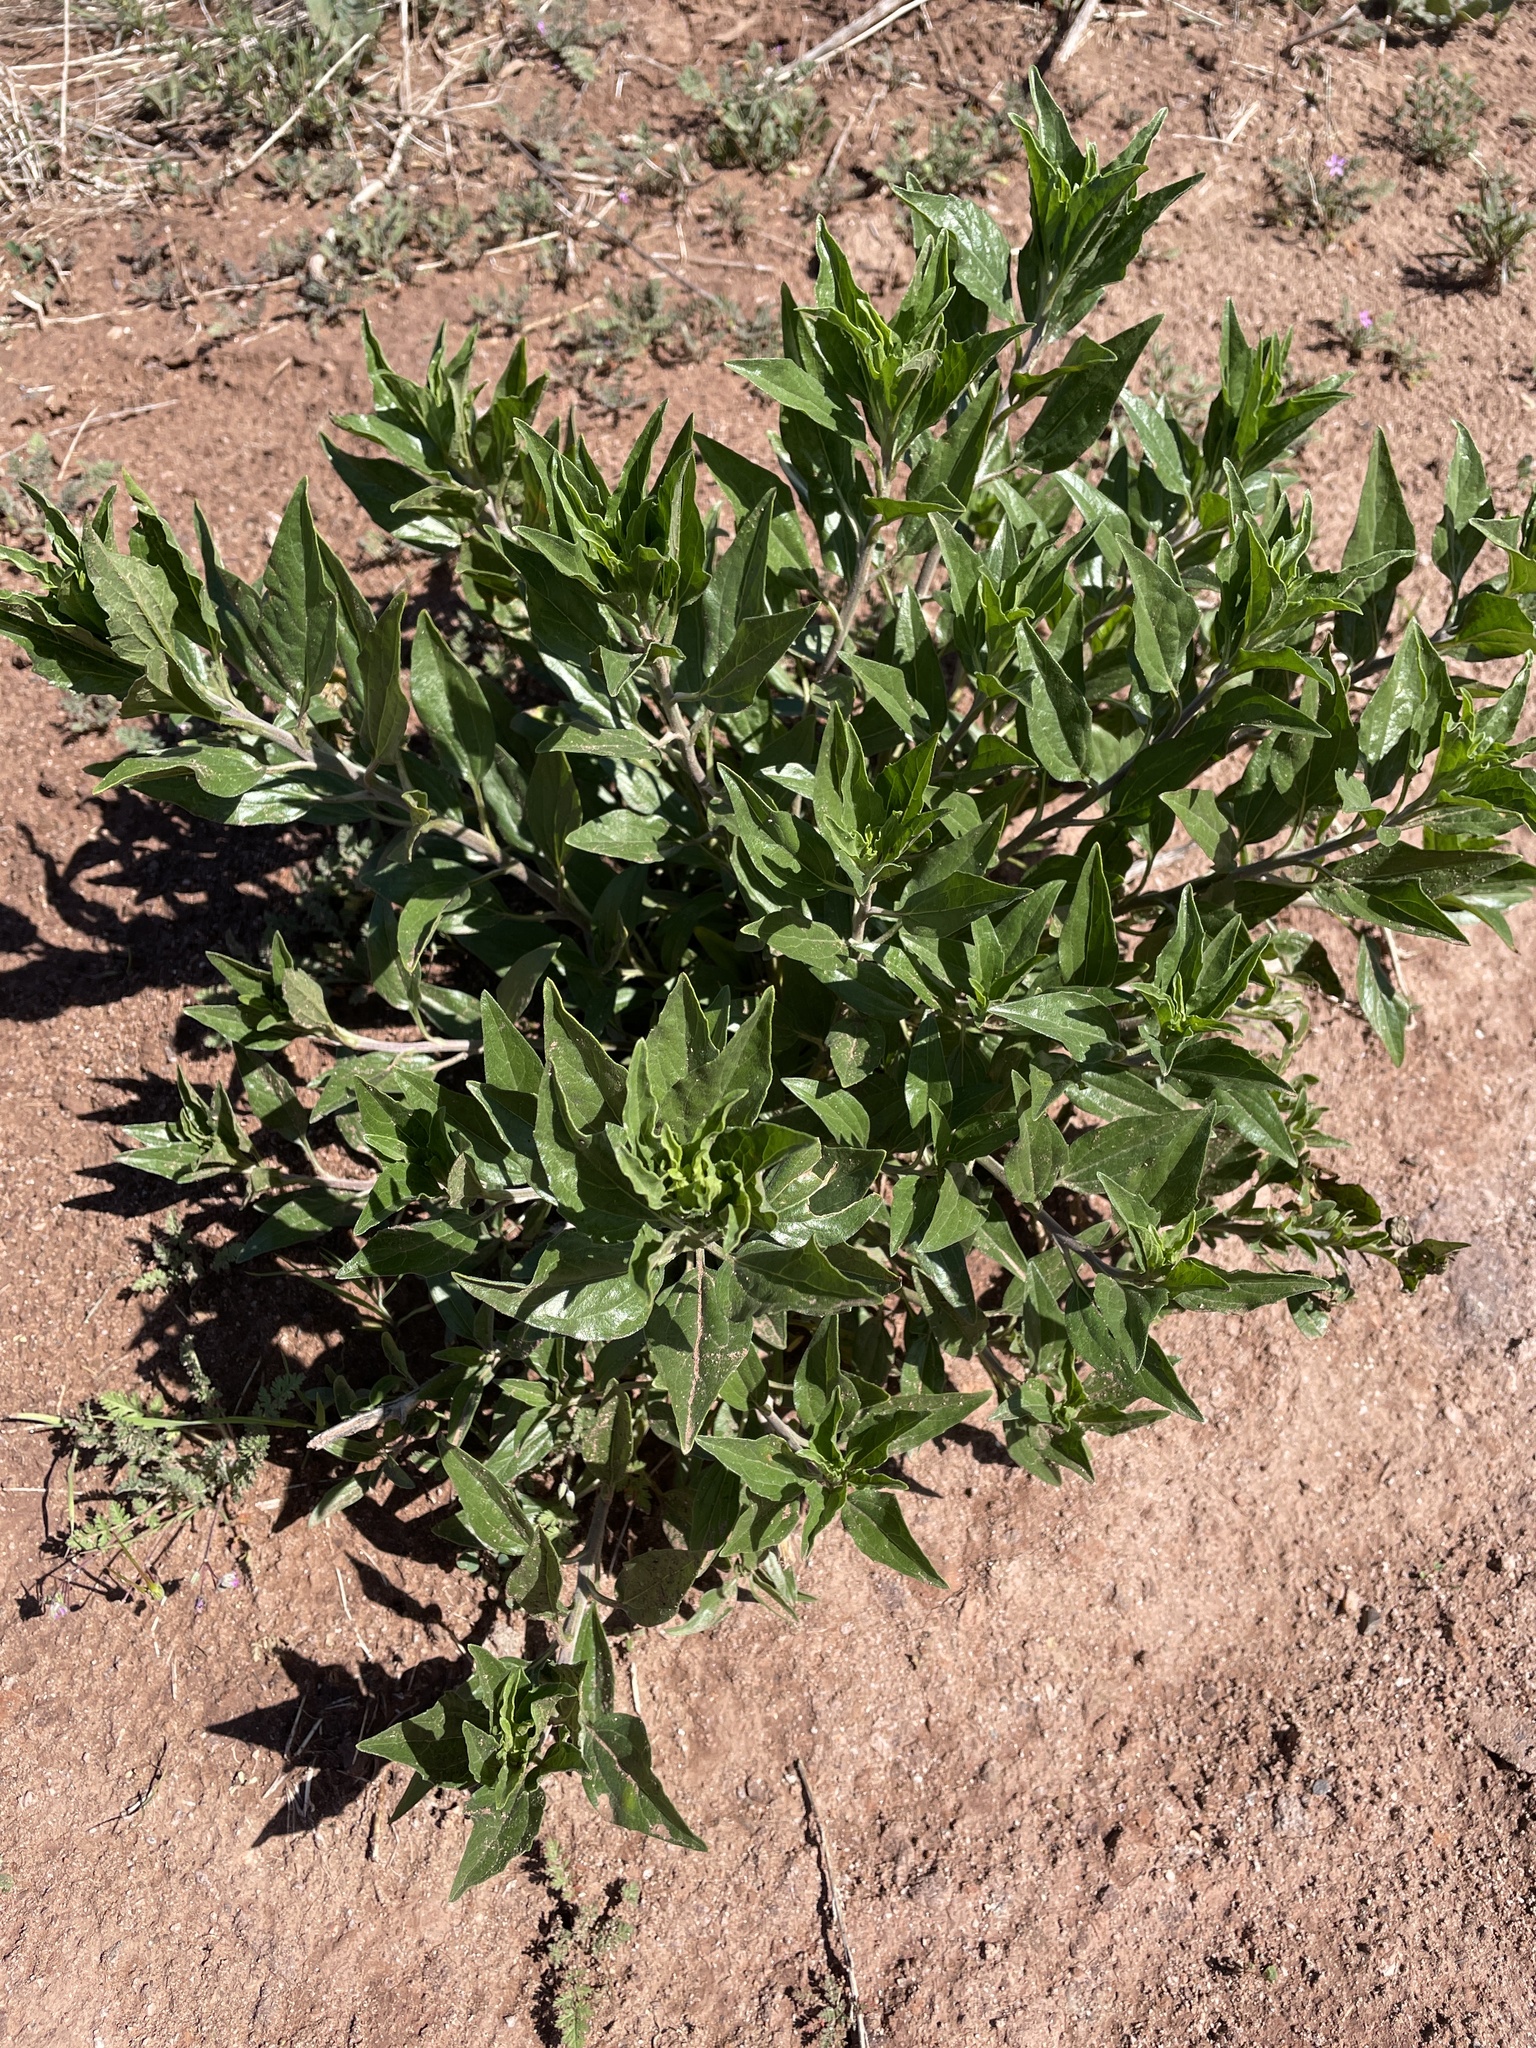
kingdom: Plantae
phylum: Tracheophyta
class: Magnoliopsida
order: Asterales
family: Asteraceae
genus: Encelia
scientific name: Encelia californica
